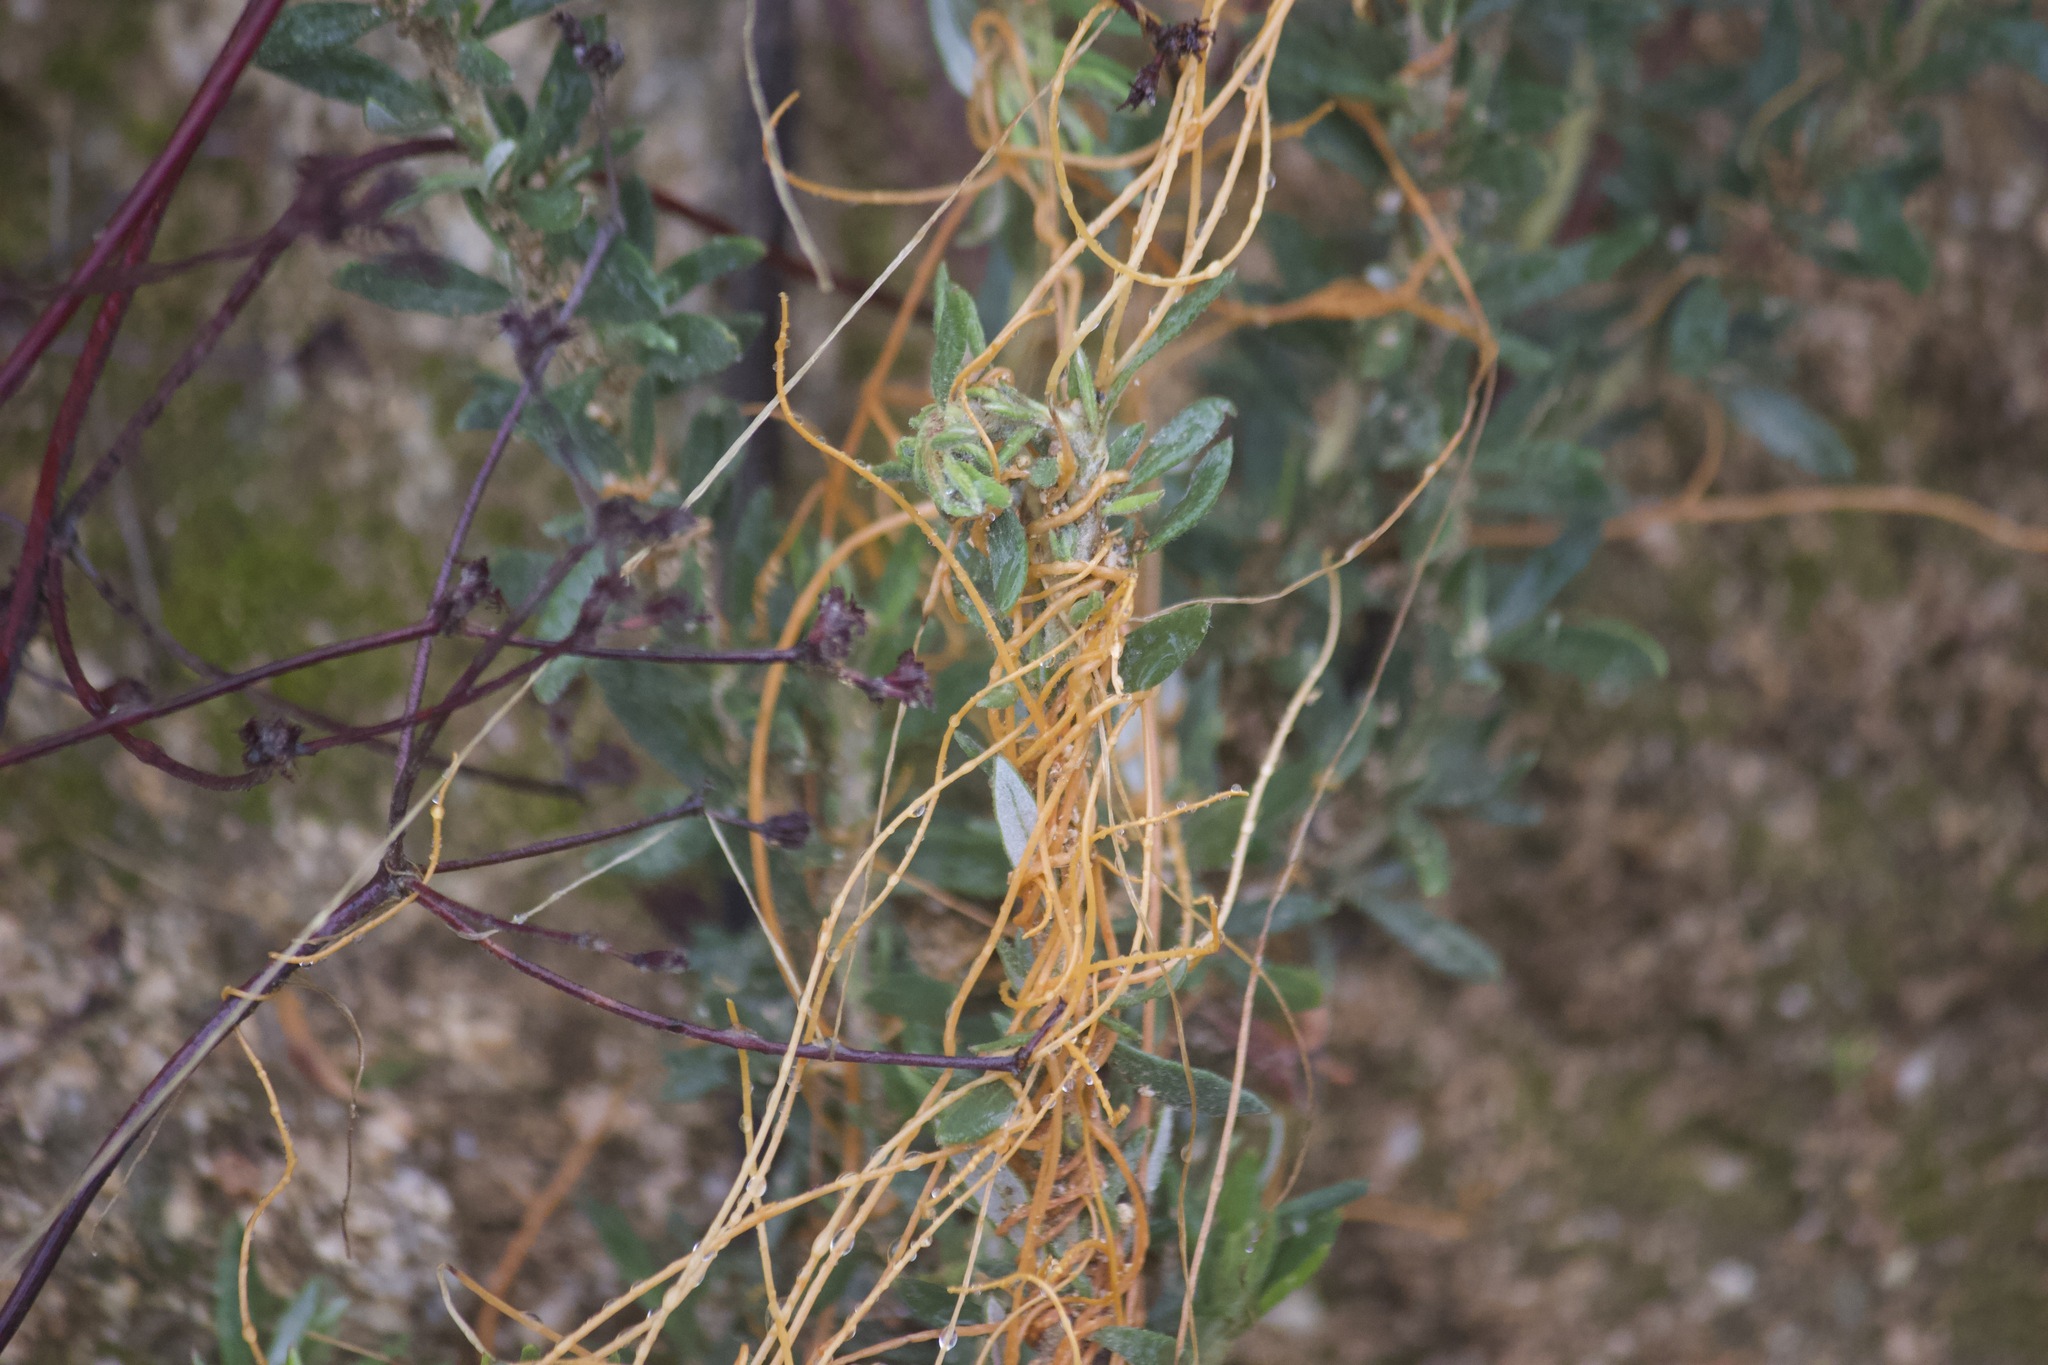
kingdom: Plantae
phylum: Tracheophyta
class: Magnoliopsida
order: Solanales
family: Convolvulaceae
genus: Cuscuta
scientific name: Cuscuta californica
